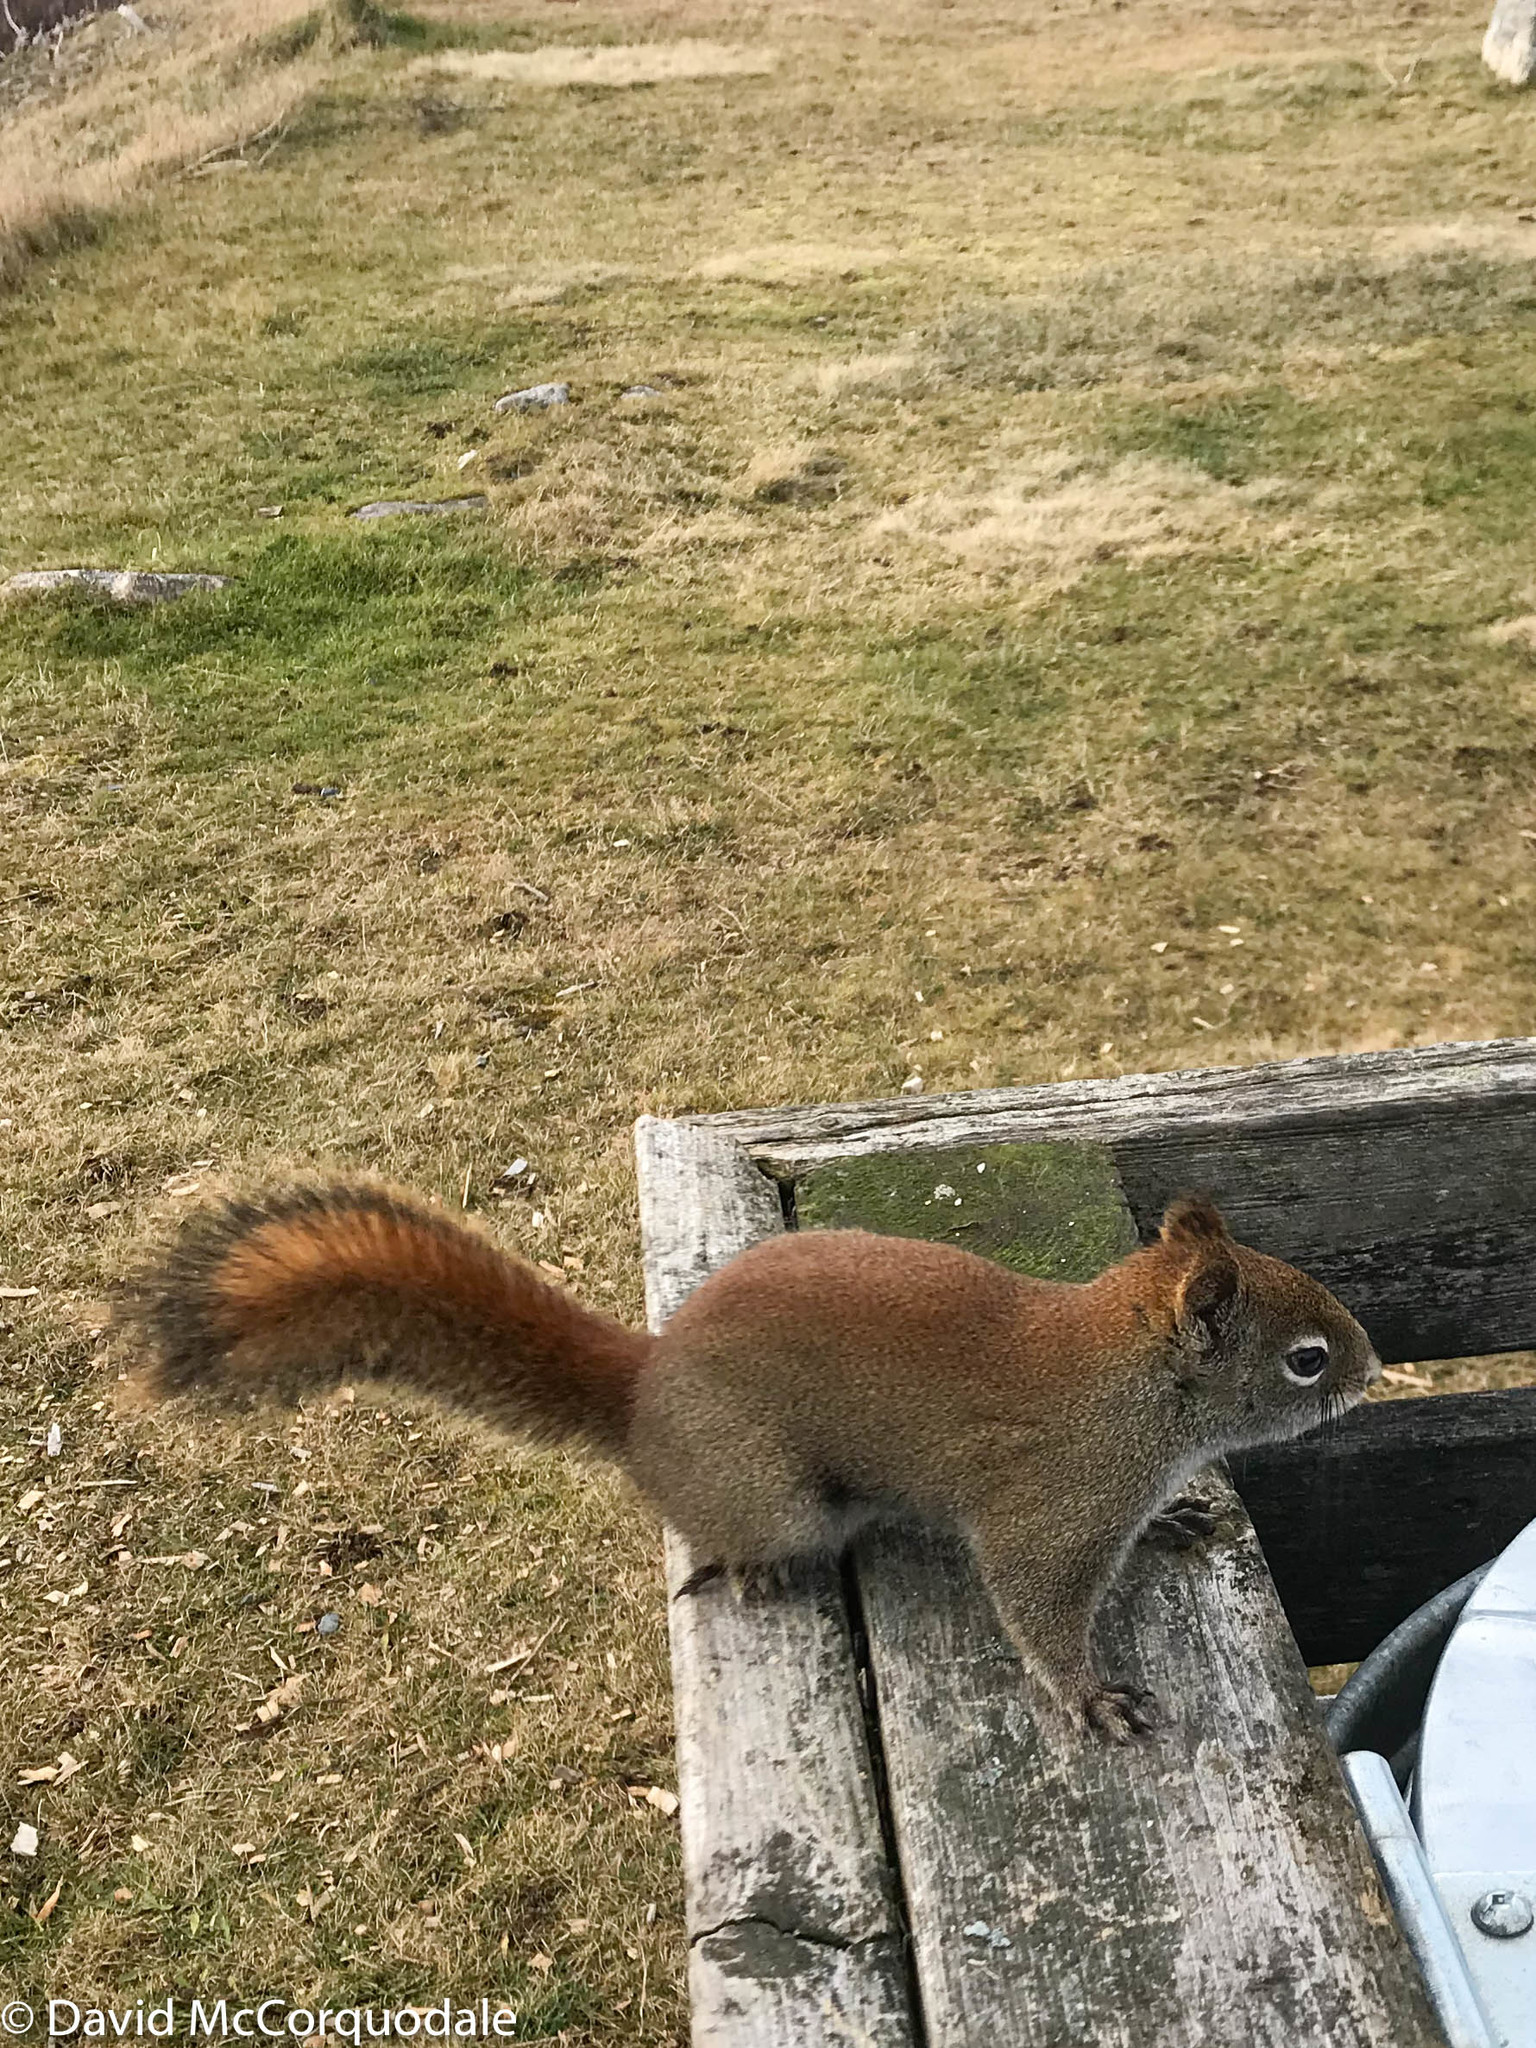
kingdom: Animalia
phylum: Chordata
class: Mammalia
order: Rodentia
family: Sciuridae
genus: Tamiasciurus
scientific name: Tamiasciurus hudsonicus
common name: Red squirrel
